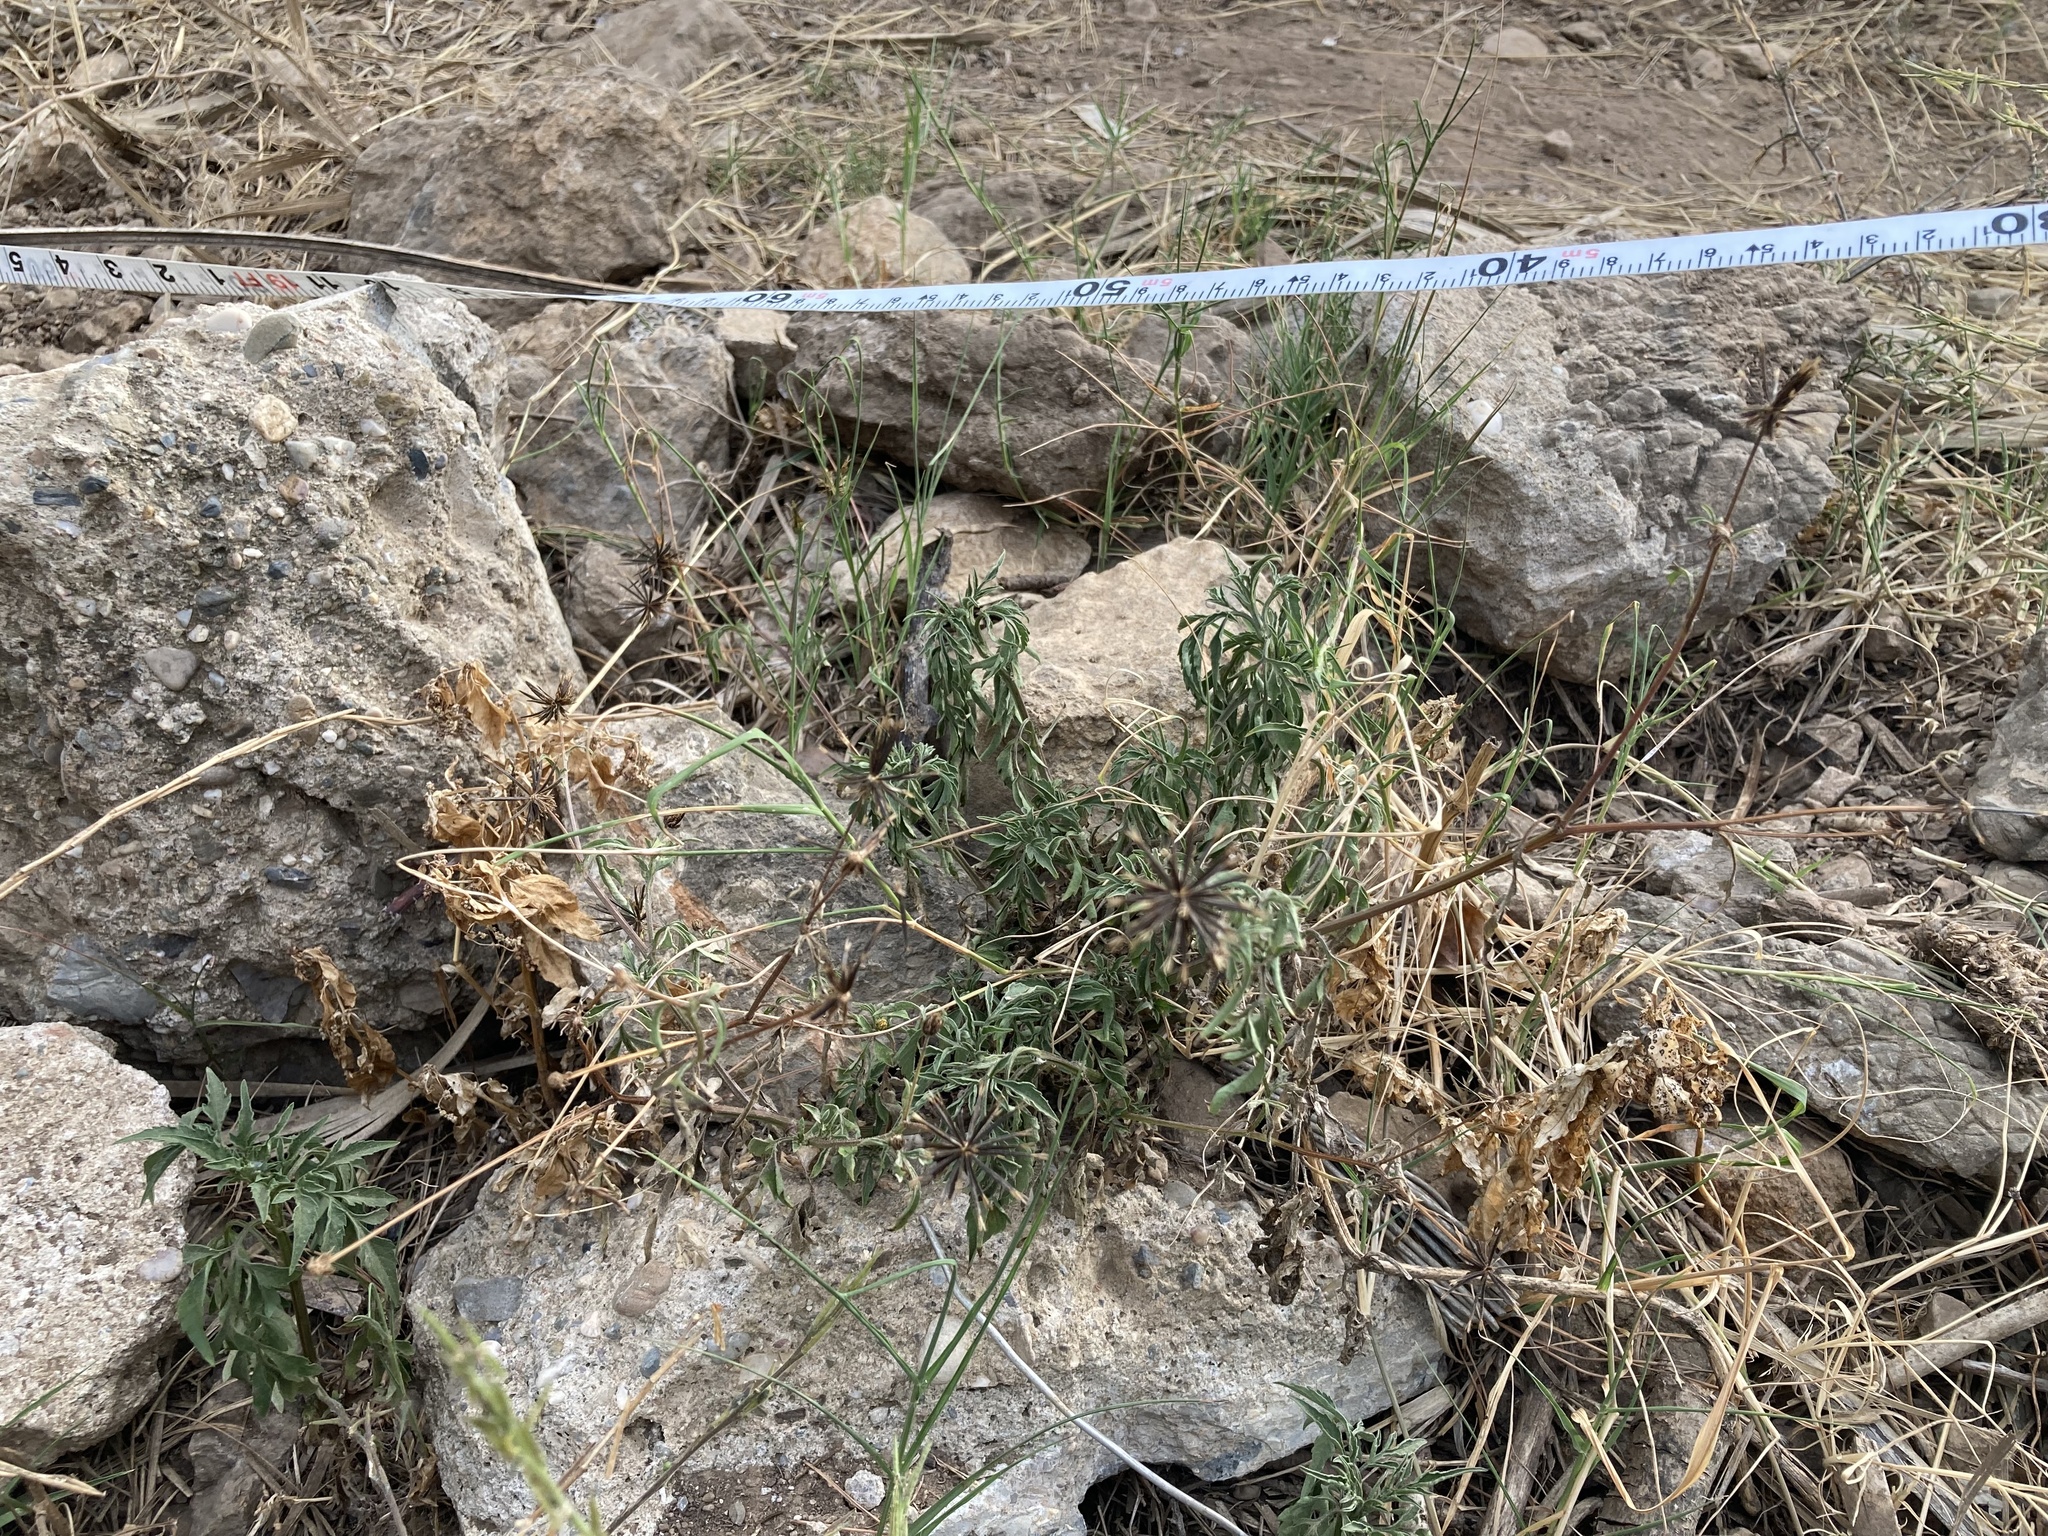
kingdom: Plantae
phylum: Tracheophyta
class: Magnoliopsida
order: Asterales
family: Asteraceae
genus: Bidens
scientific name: Bidens subalternans
